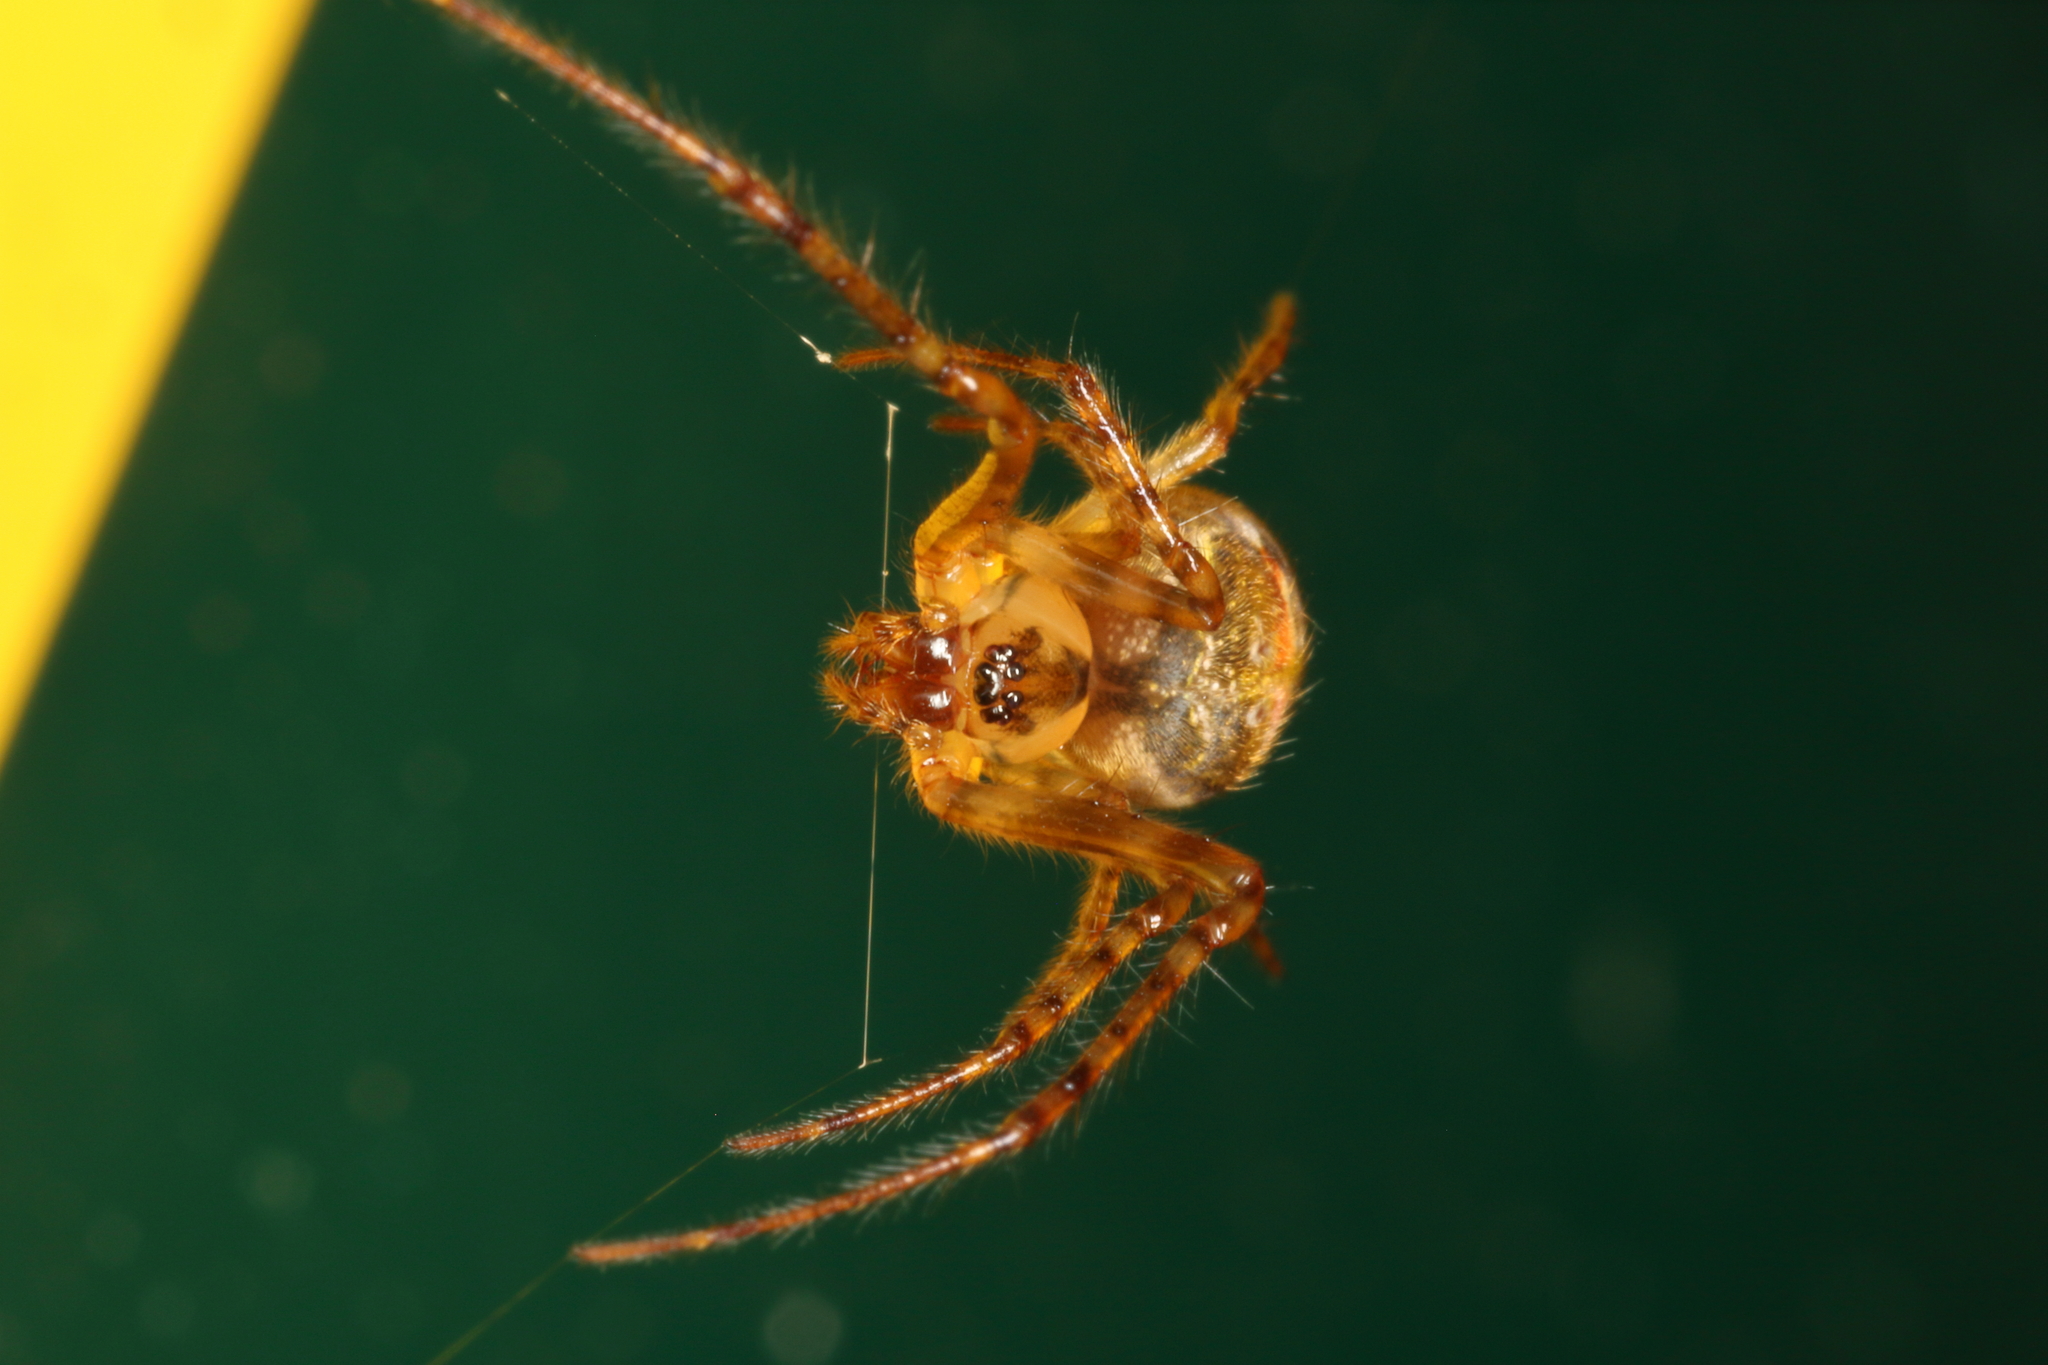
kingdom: Animalia
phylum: Arthropoda
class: Arachnida
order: Araneae
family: Tetragnathidae
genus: Taraire
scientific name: Taraire rufolineata
